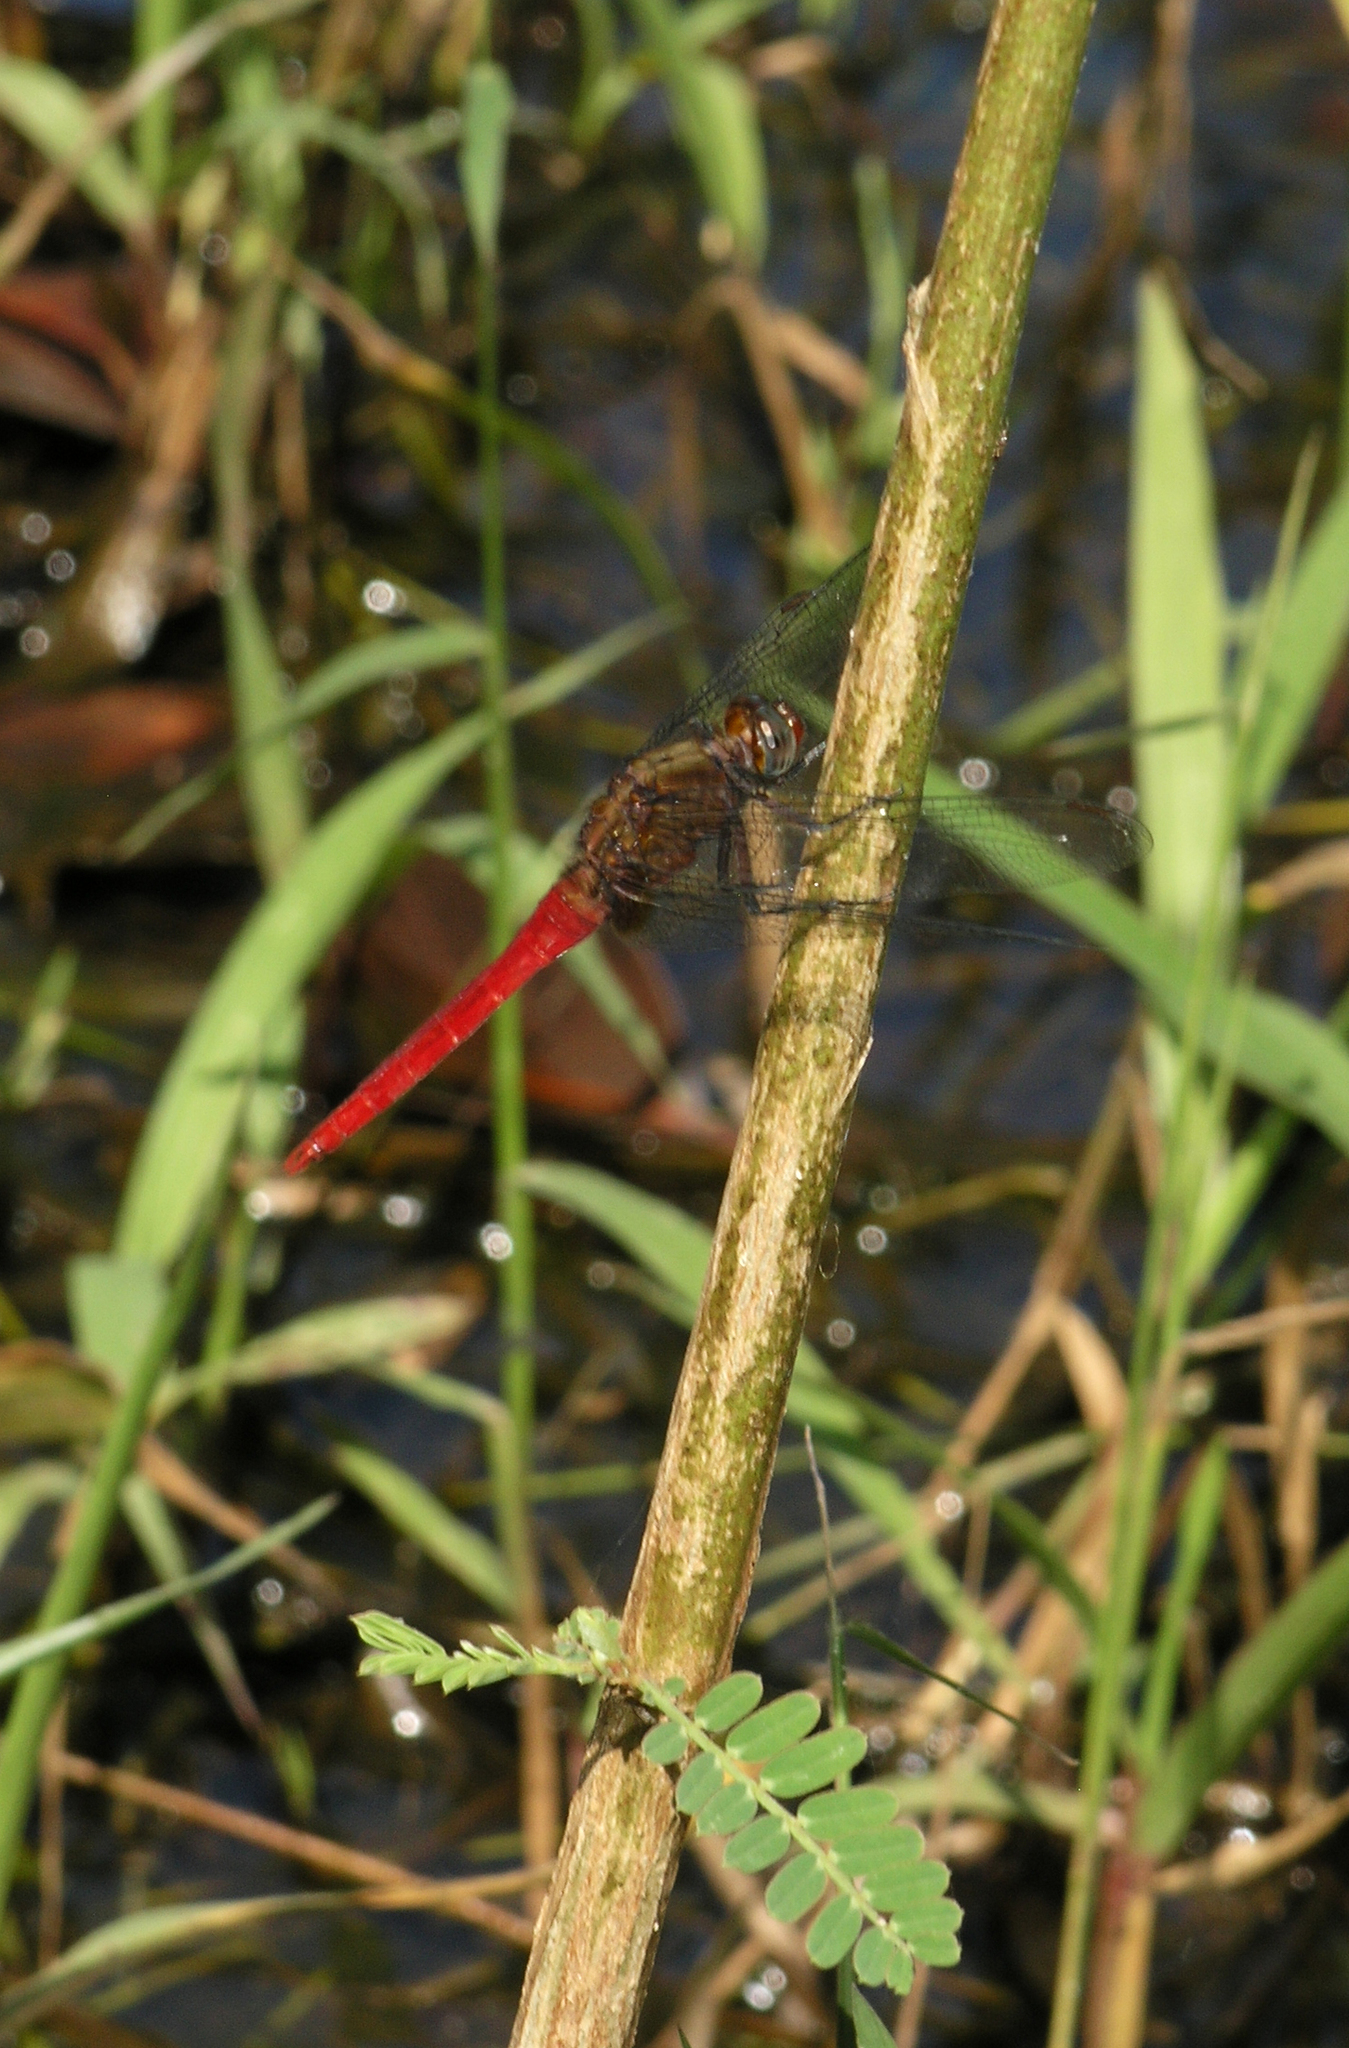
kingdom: Animalia
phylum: Arthropoda
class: Insecta
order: Odonata
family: Libellulidae
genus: Orthetrum
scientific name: Orthetrum chrysis
